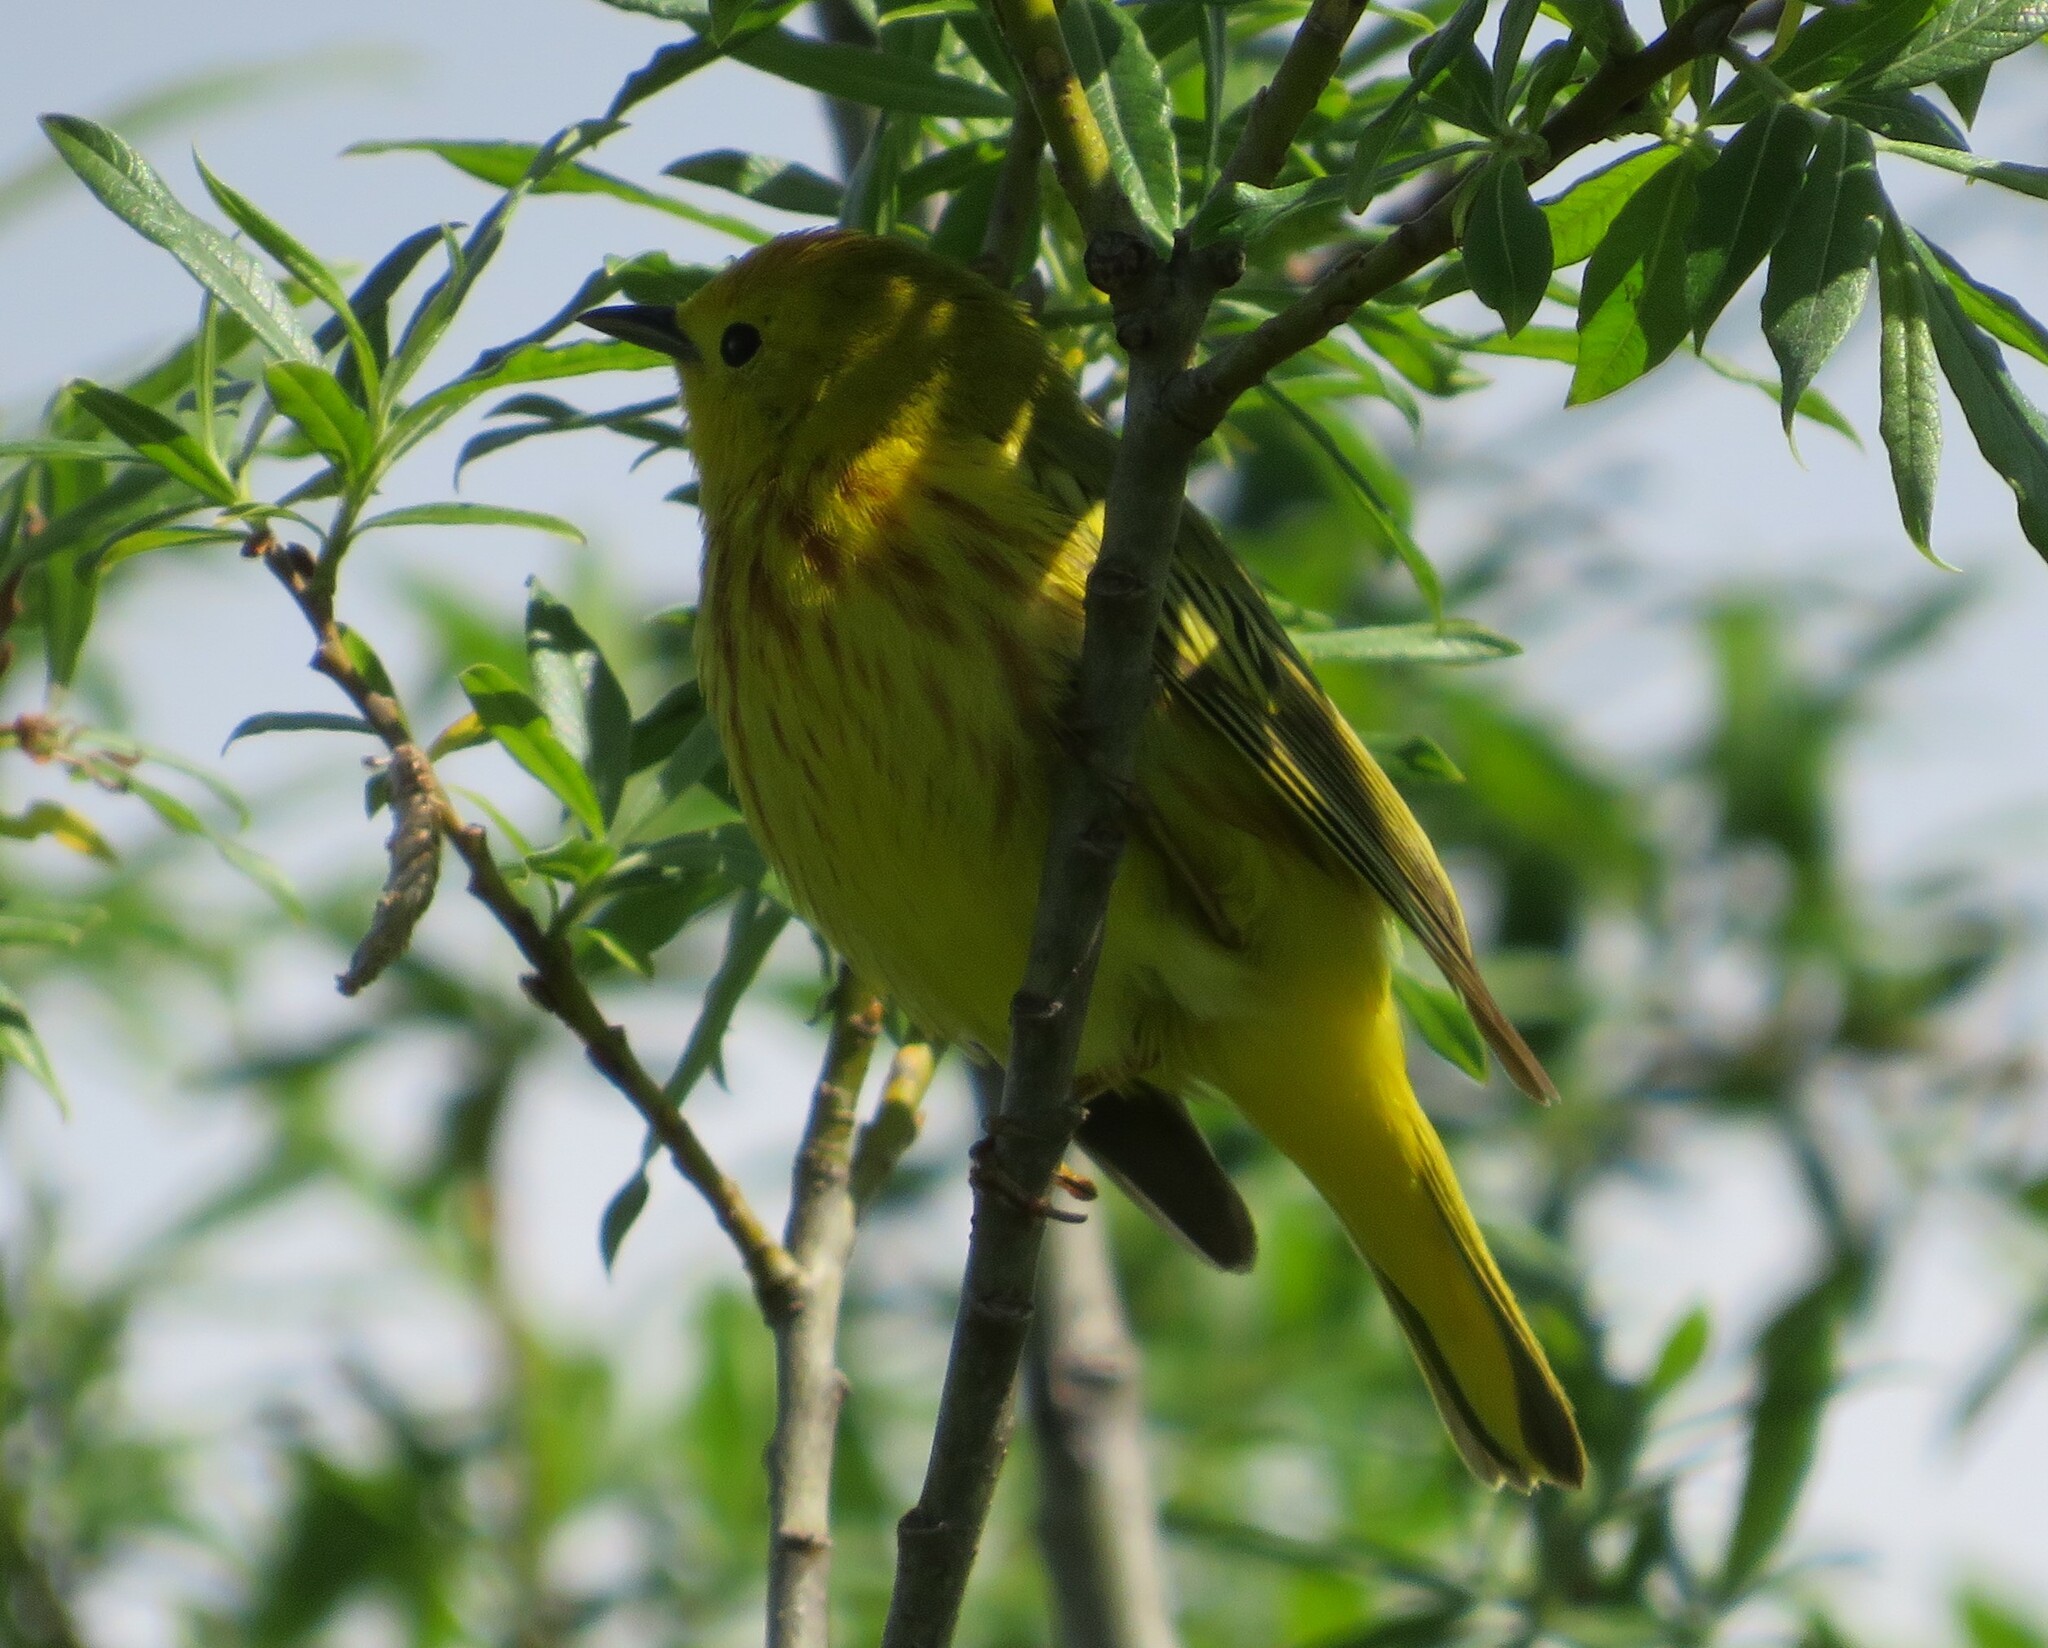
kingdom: Animalia
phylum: Chordata
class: Aves
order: Passeriformes
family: Parulidae
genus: Setophaga
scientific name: Setophaga petechia
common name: Yellow warbler
